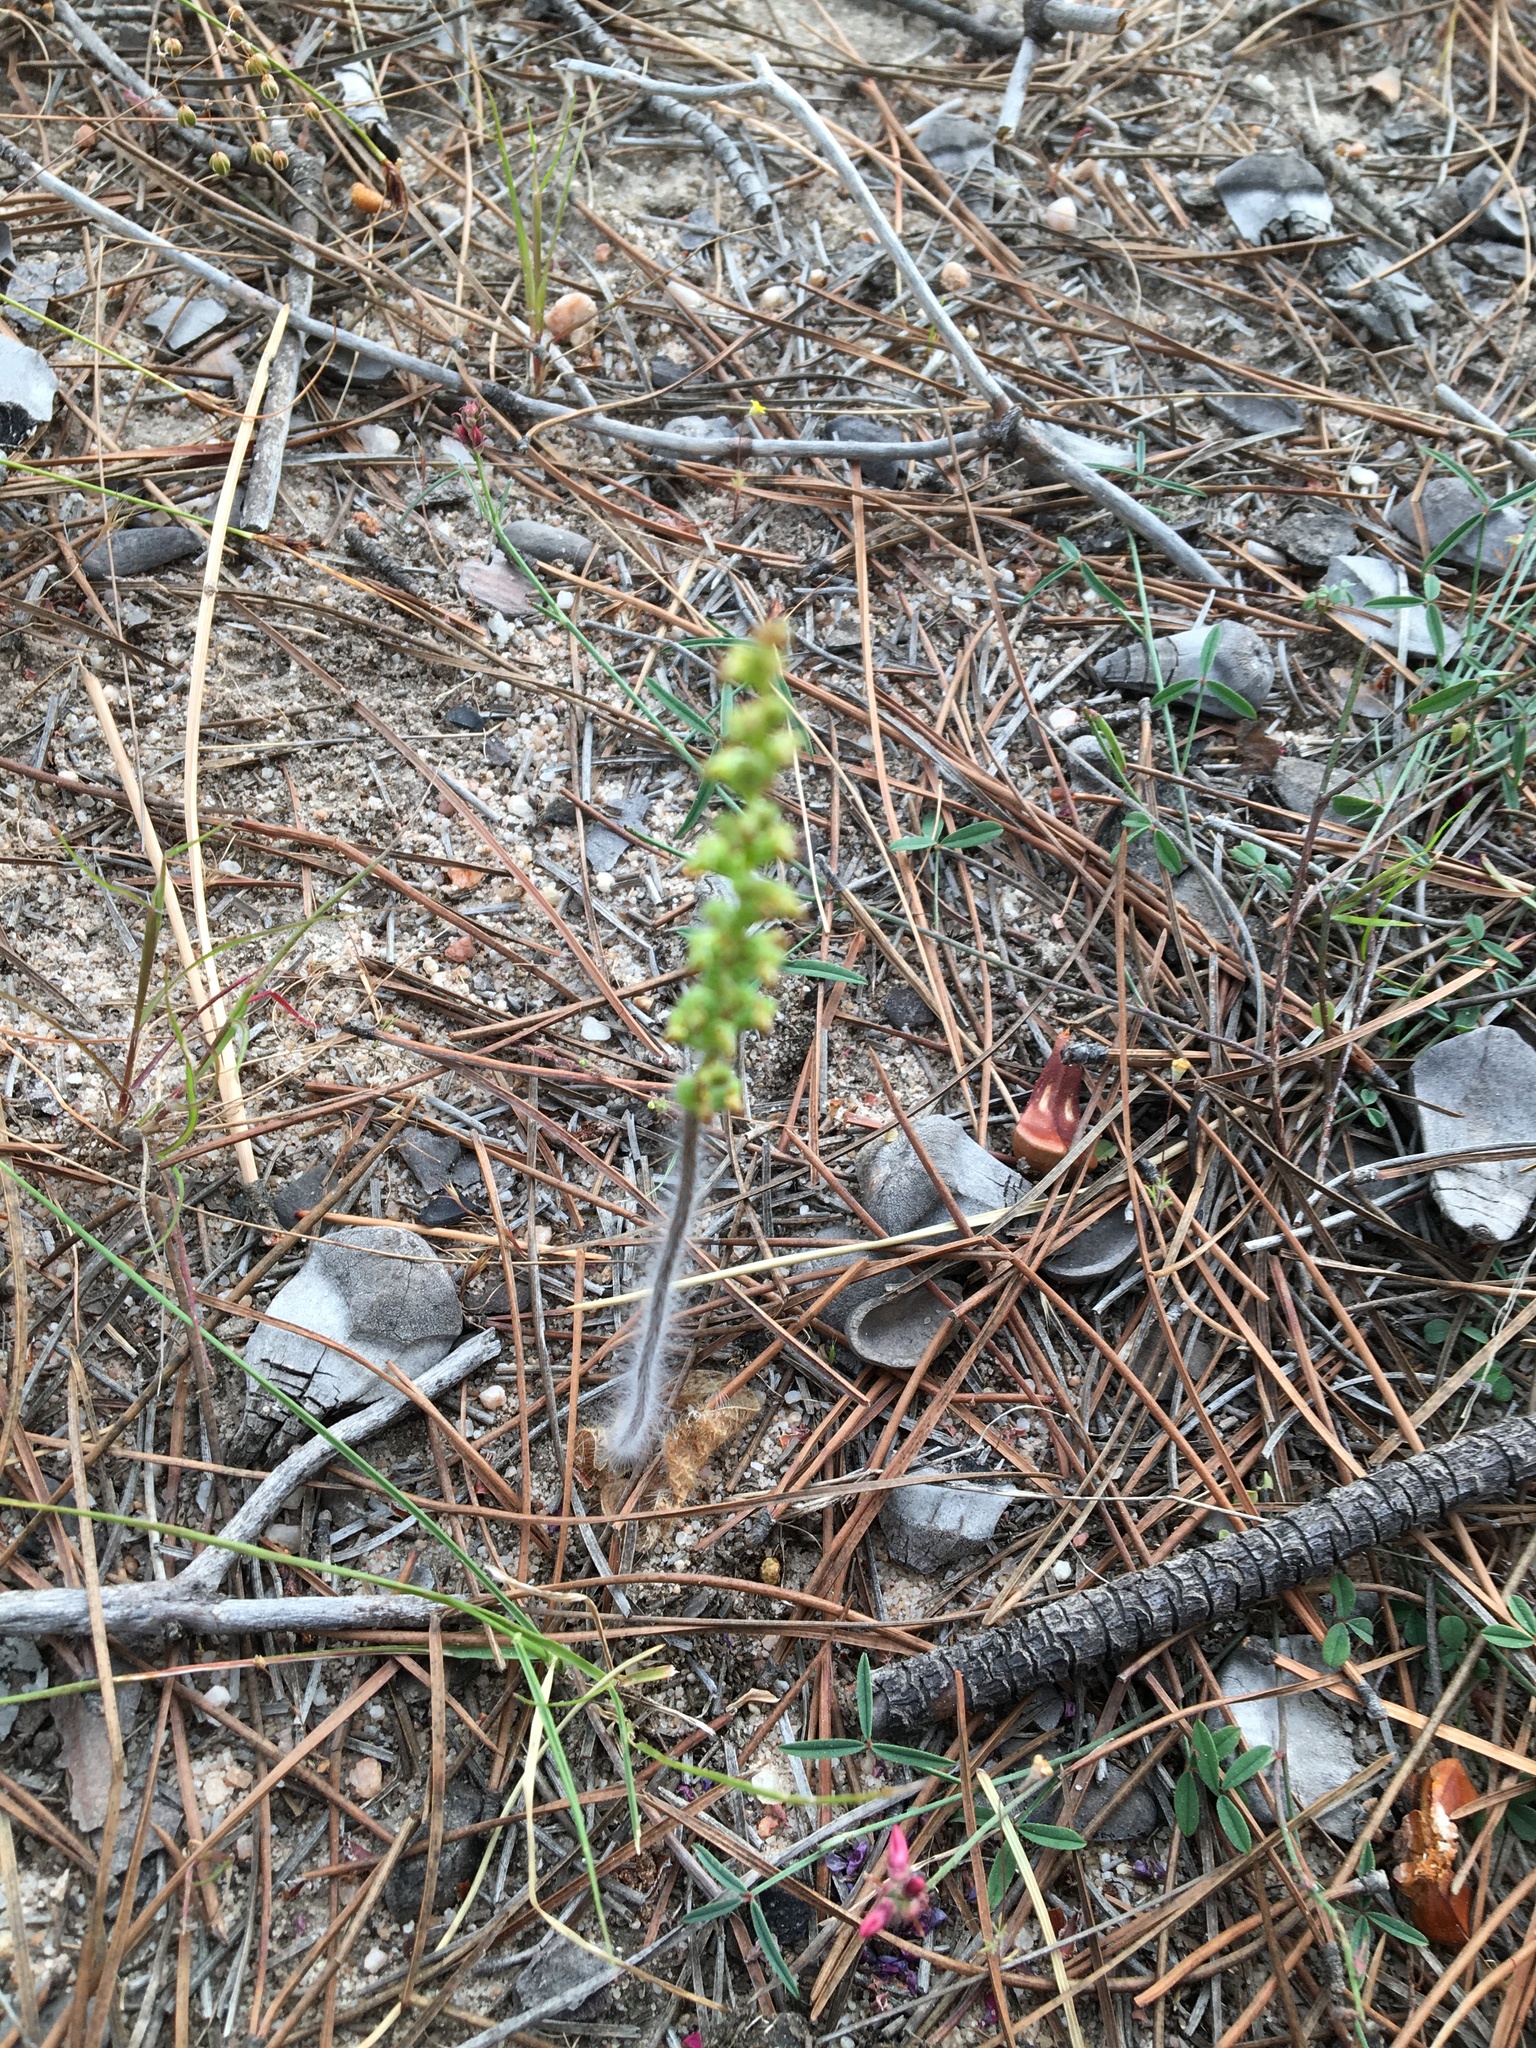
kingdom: Plantae
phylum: Tracheophyta
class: Liliopsida
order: Asparagales
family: Orchidaceae
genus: Holothrix
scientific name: Holothrix villosa
